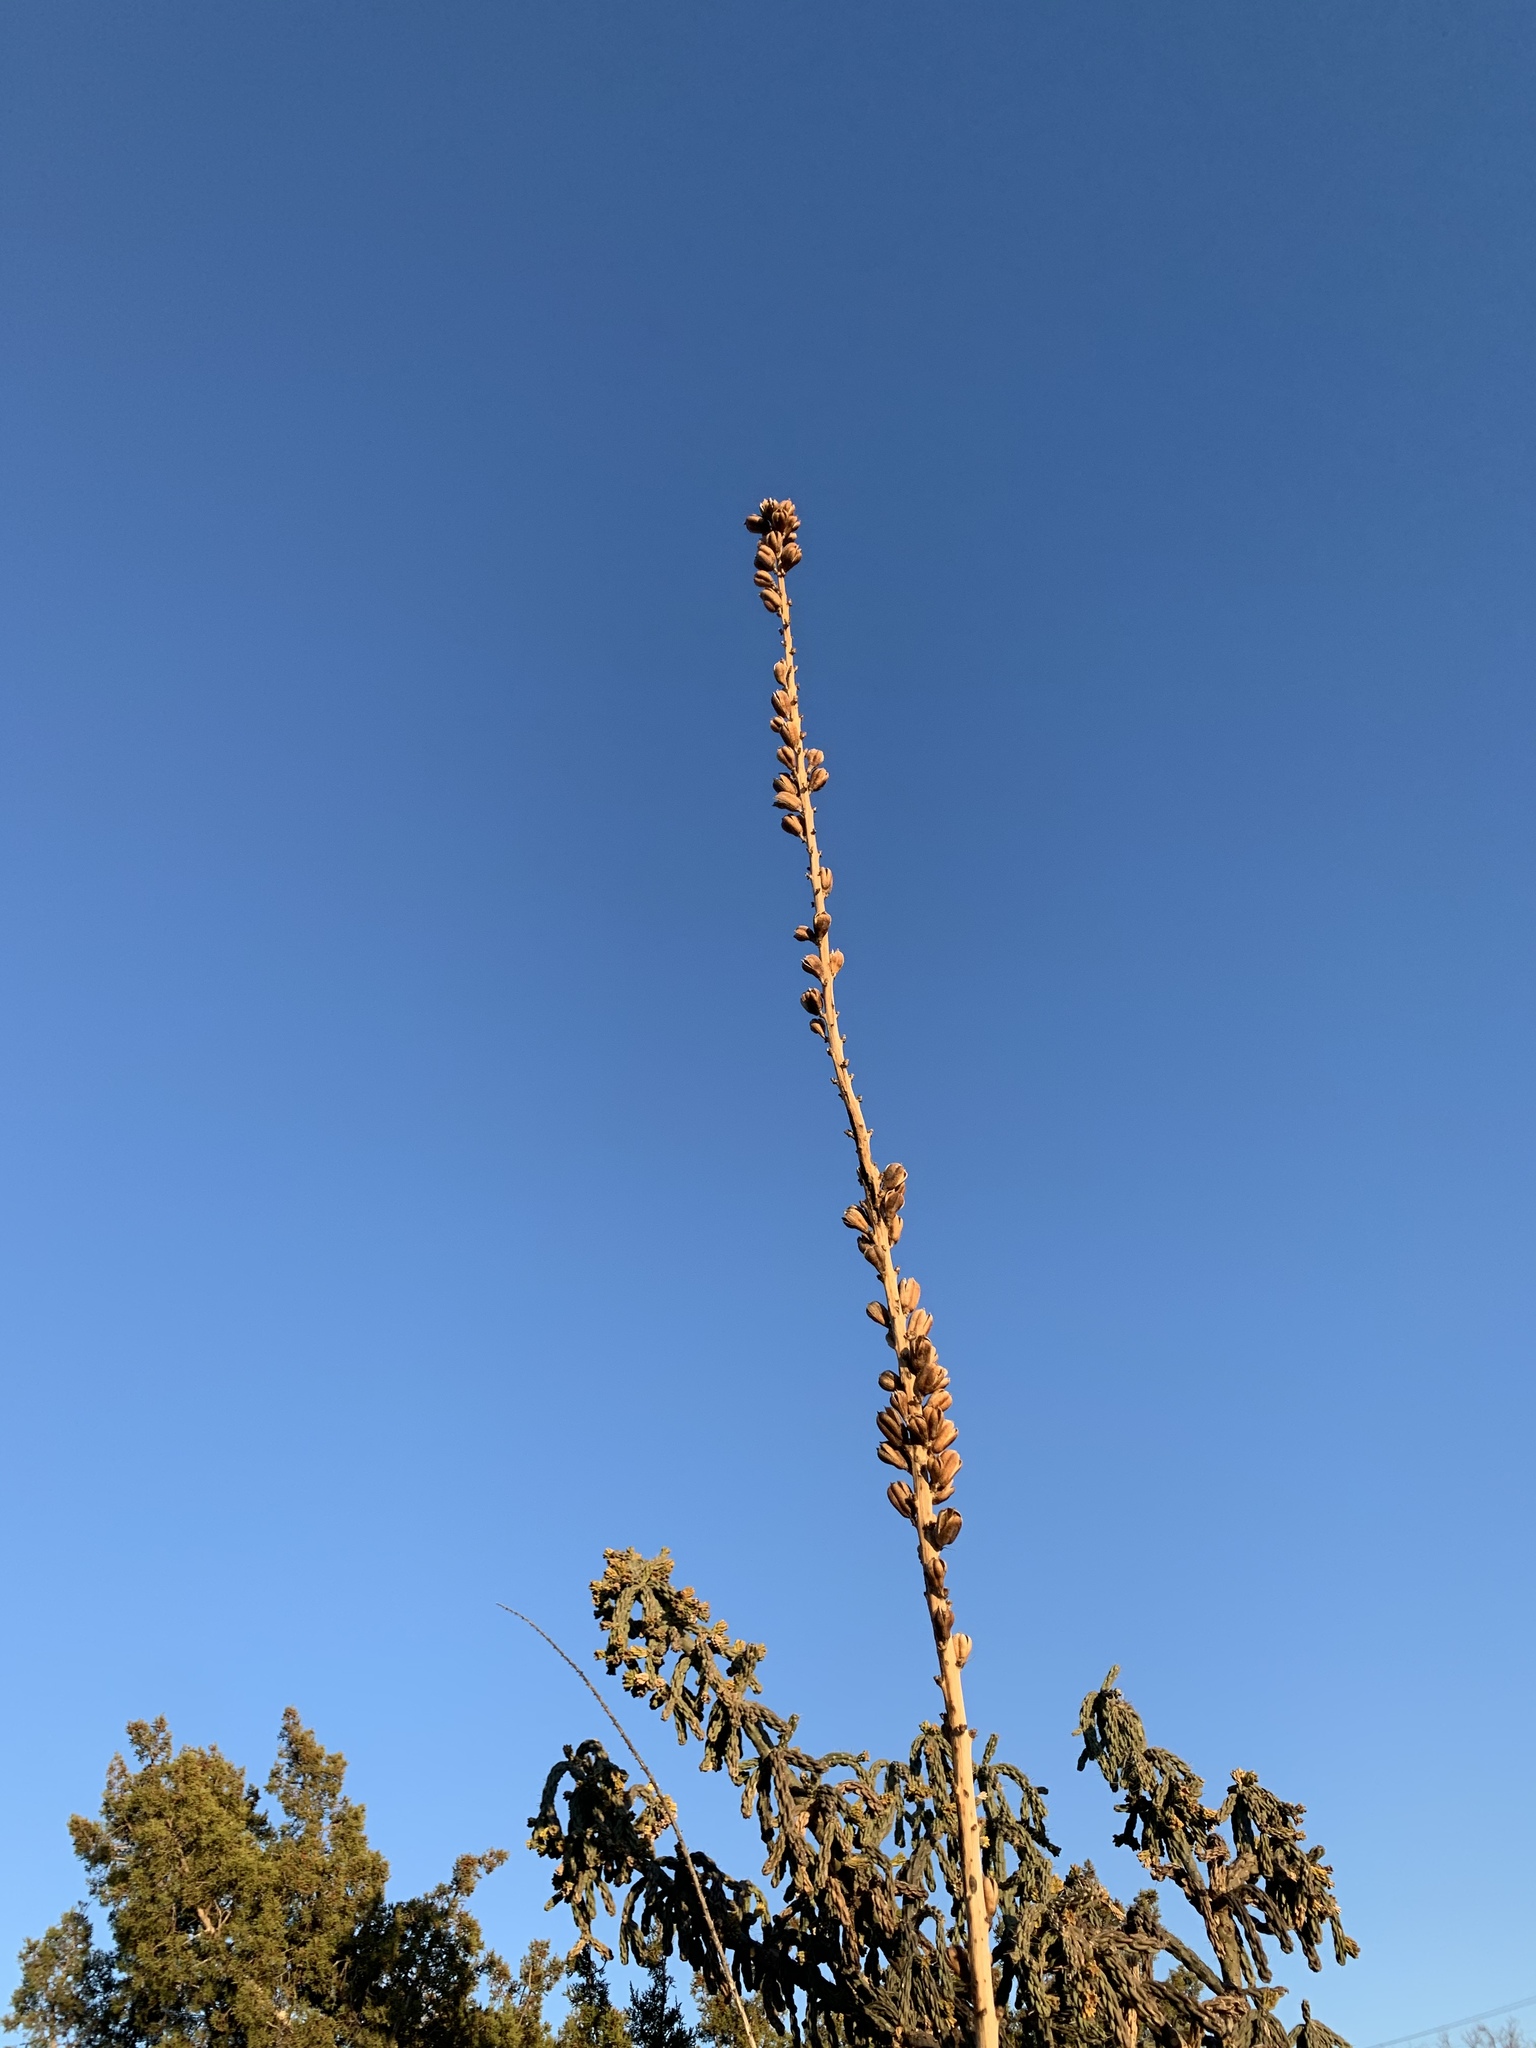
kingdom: Plantae
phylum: Tracheophyta
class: Liliopsida
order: Asparagales
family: Asparagaceae
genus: Agave
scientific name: Agave lechuguilla
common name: Lecheguilla agave
